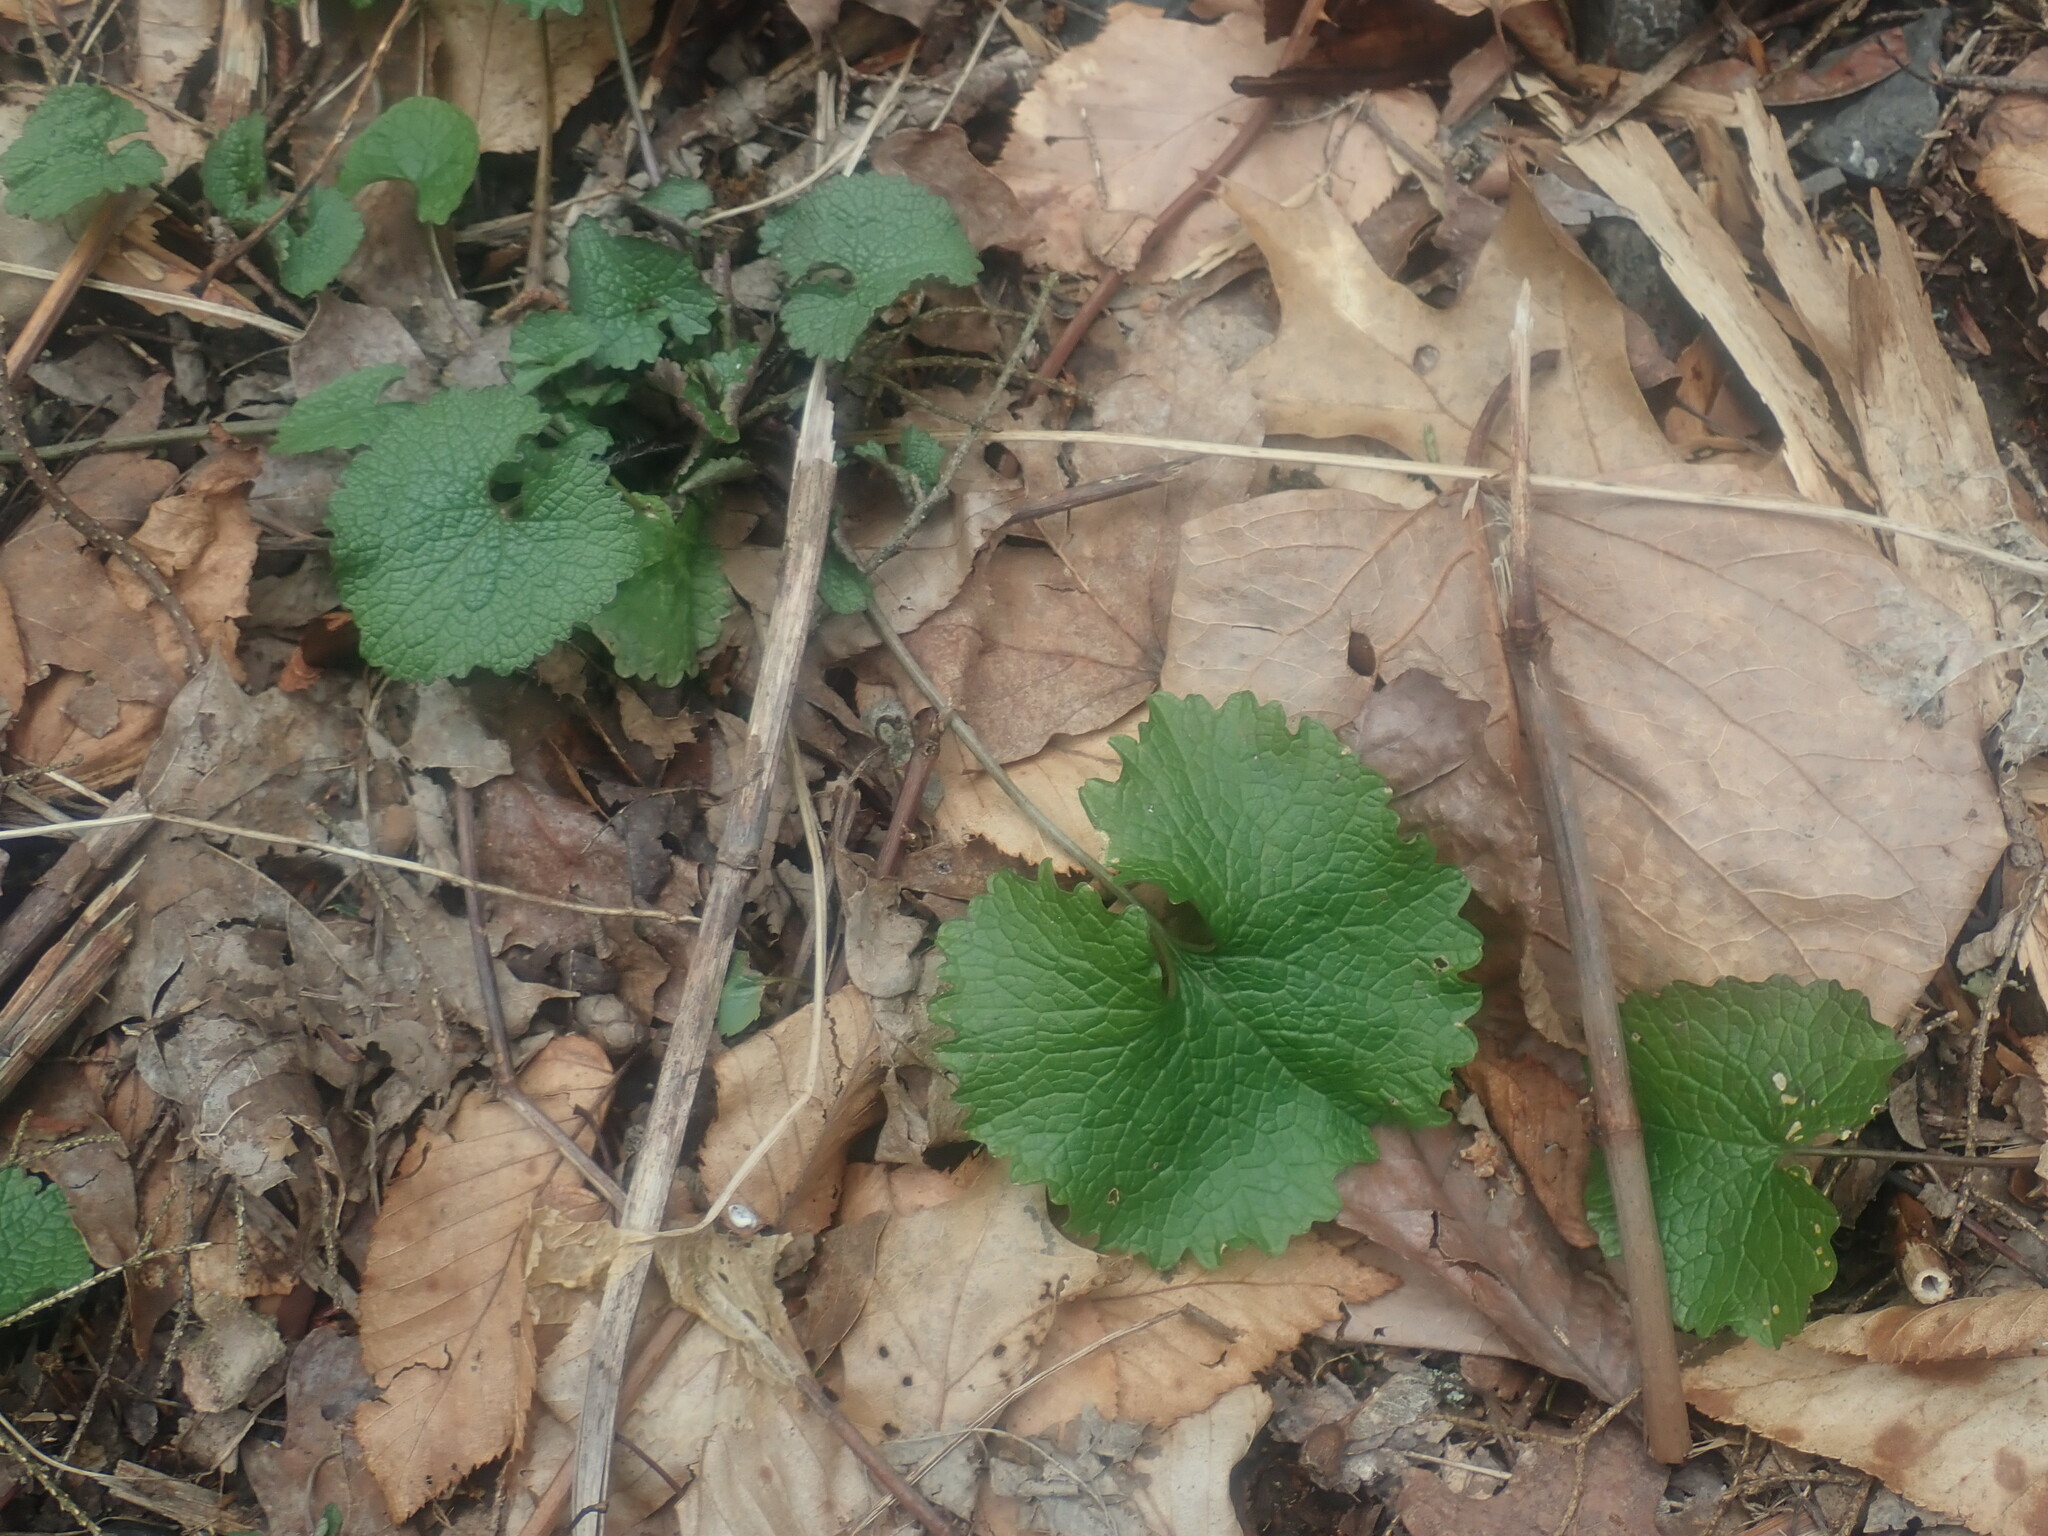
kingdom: Plantae
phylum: Tracheophyta
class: Magnoliopsida
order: Brassicales
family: Brassicaceae
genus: Alliaria
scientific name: Alliaria petiolata
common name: Garlic mustard
